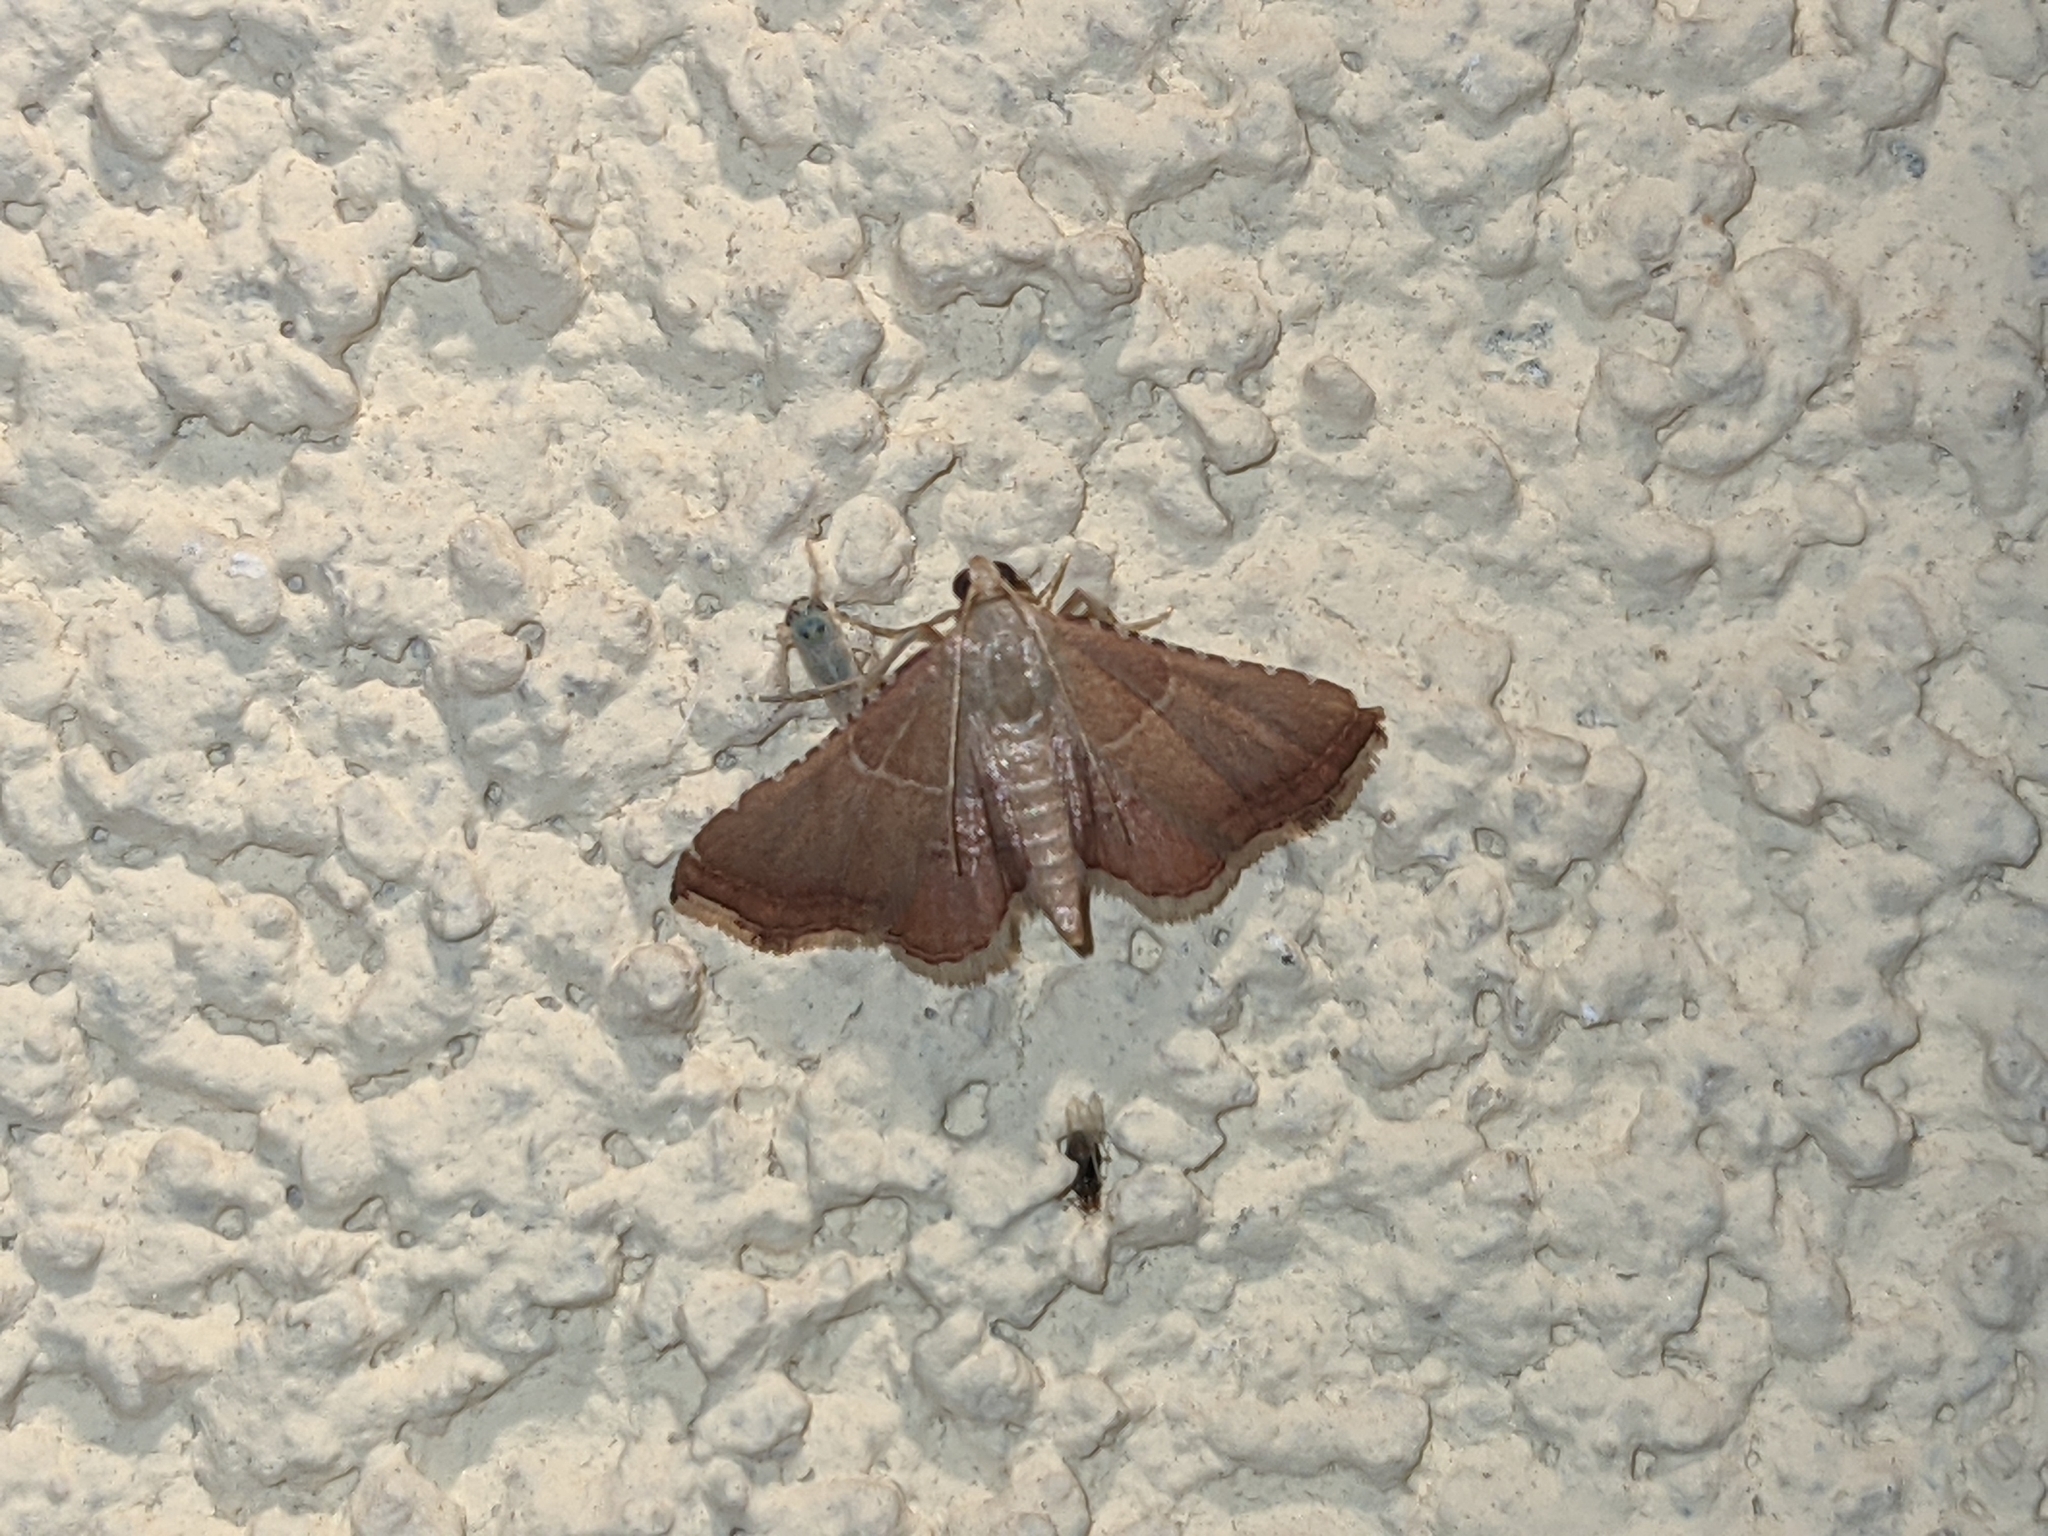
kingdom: Animalia
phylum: Arthropoda
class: Insecta
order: Lepidoptera
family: Pyralidae
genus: Endotricha
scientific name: Endotricha flammealis
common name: Rosy tabby
